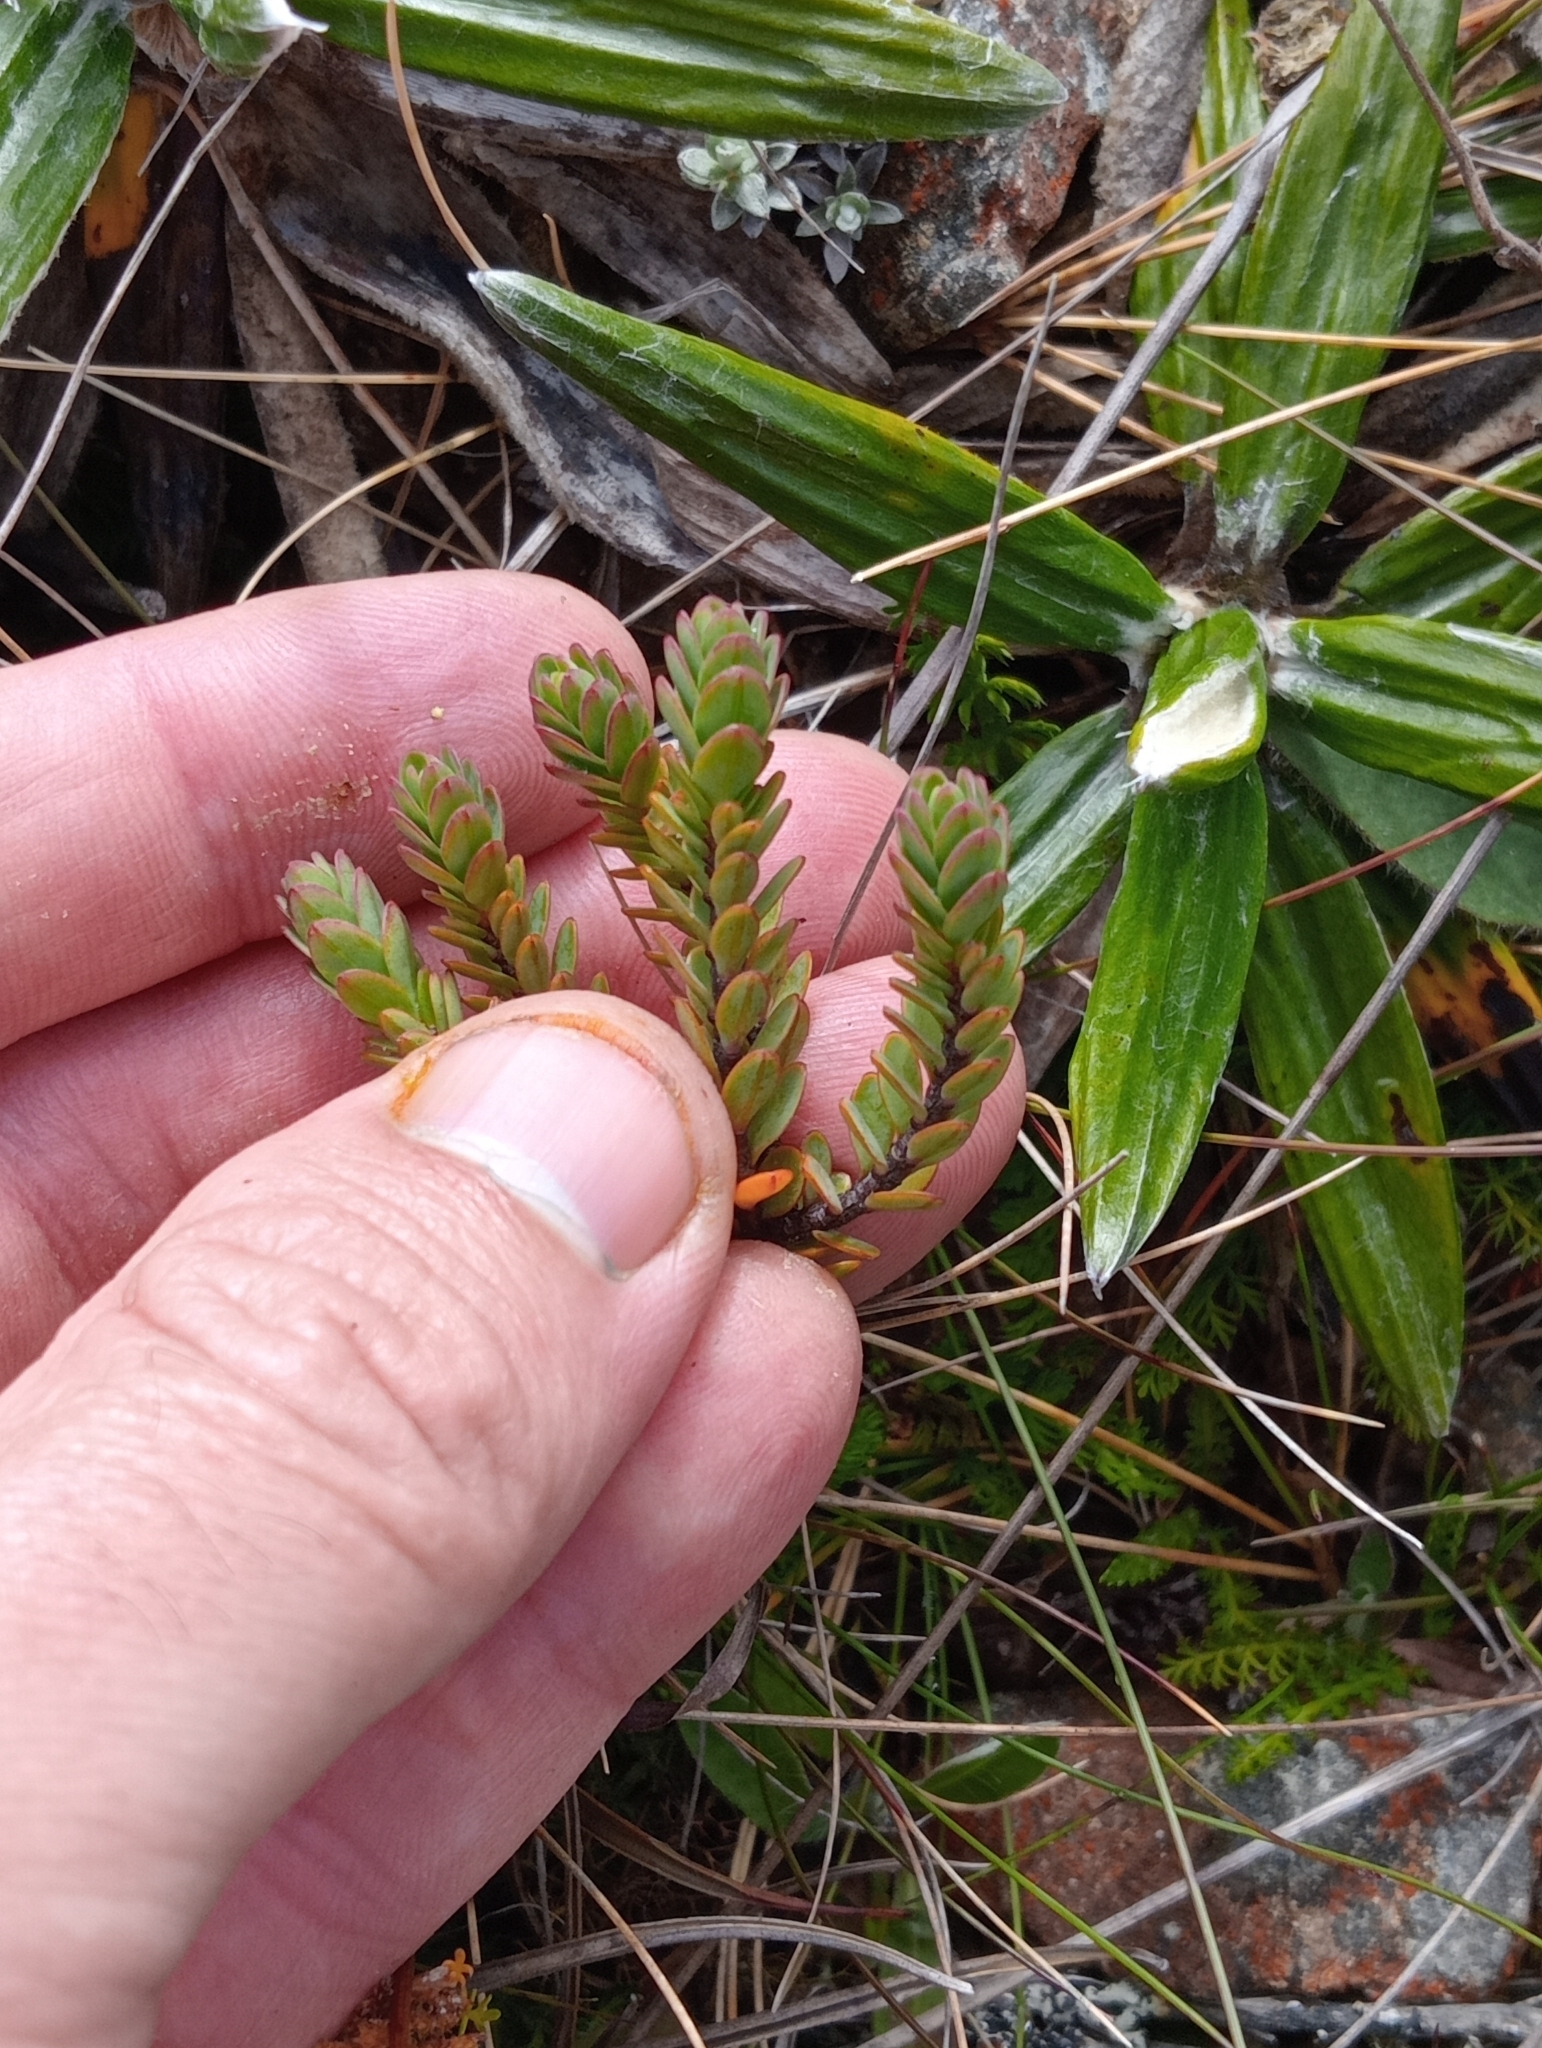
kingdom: Plantae
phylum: Tracheophyta
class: Magnoliopsida
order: Malvales
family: Thymelaeaceae
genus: Pimelea
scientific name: Pimelea traversii
